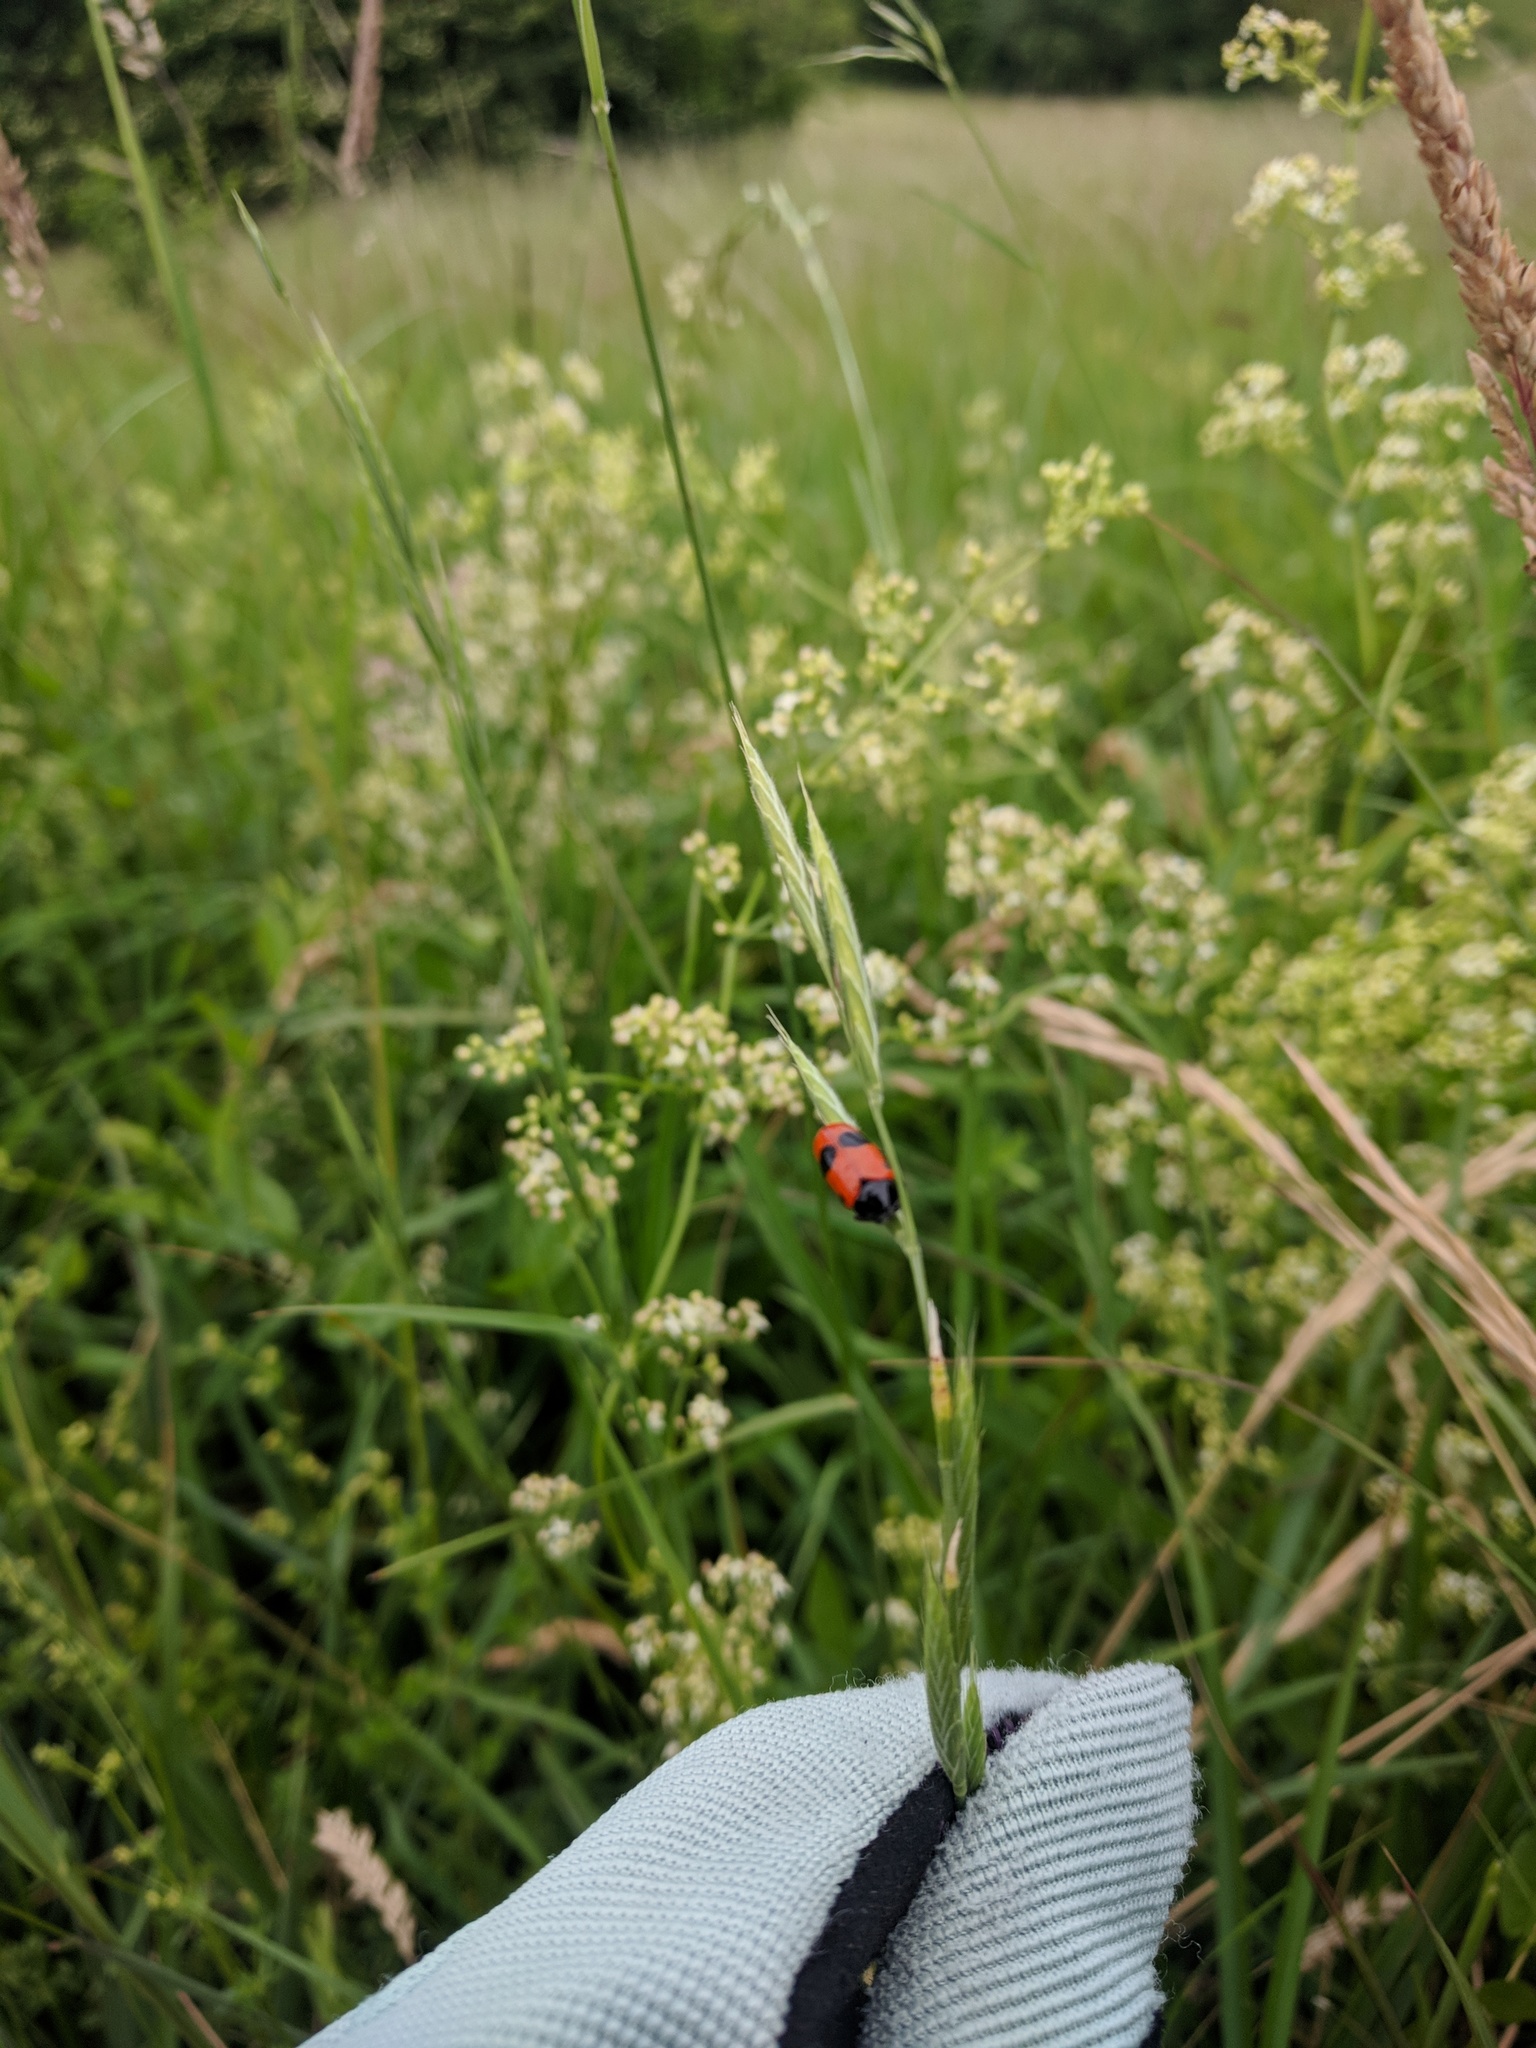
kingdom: Animalia
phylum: Arthropoda
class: Insecta
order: Coleoptera
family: Chrysomelidae
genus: Clytra
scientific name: Clytra laeviuscula
